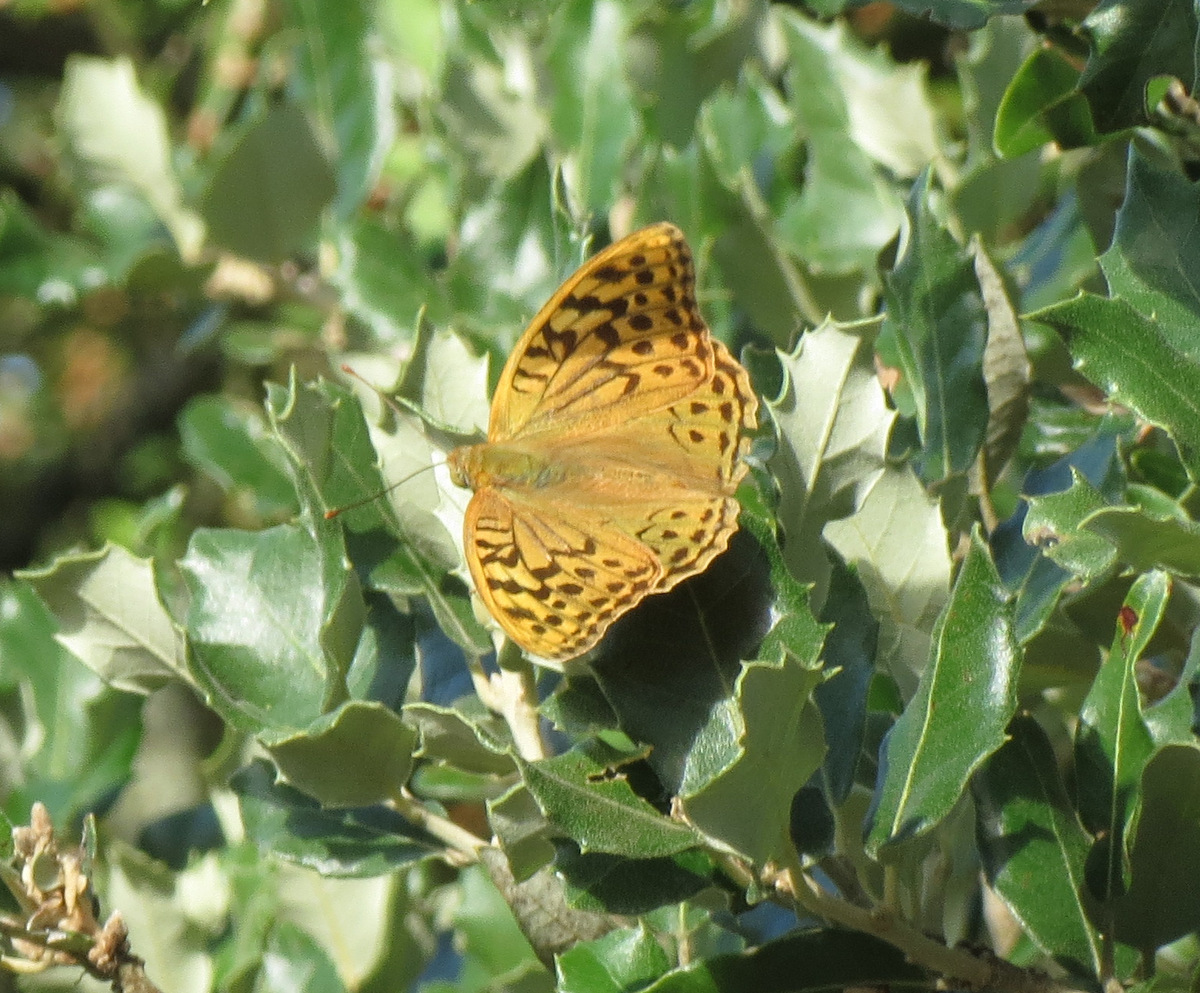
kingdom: Animalia
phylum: Arthropoda
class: Insecta
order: Lepidoptera
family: Nymphalidae
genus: Damora
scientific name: Damora pandora
